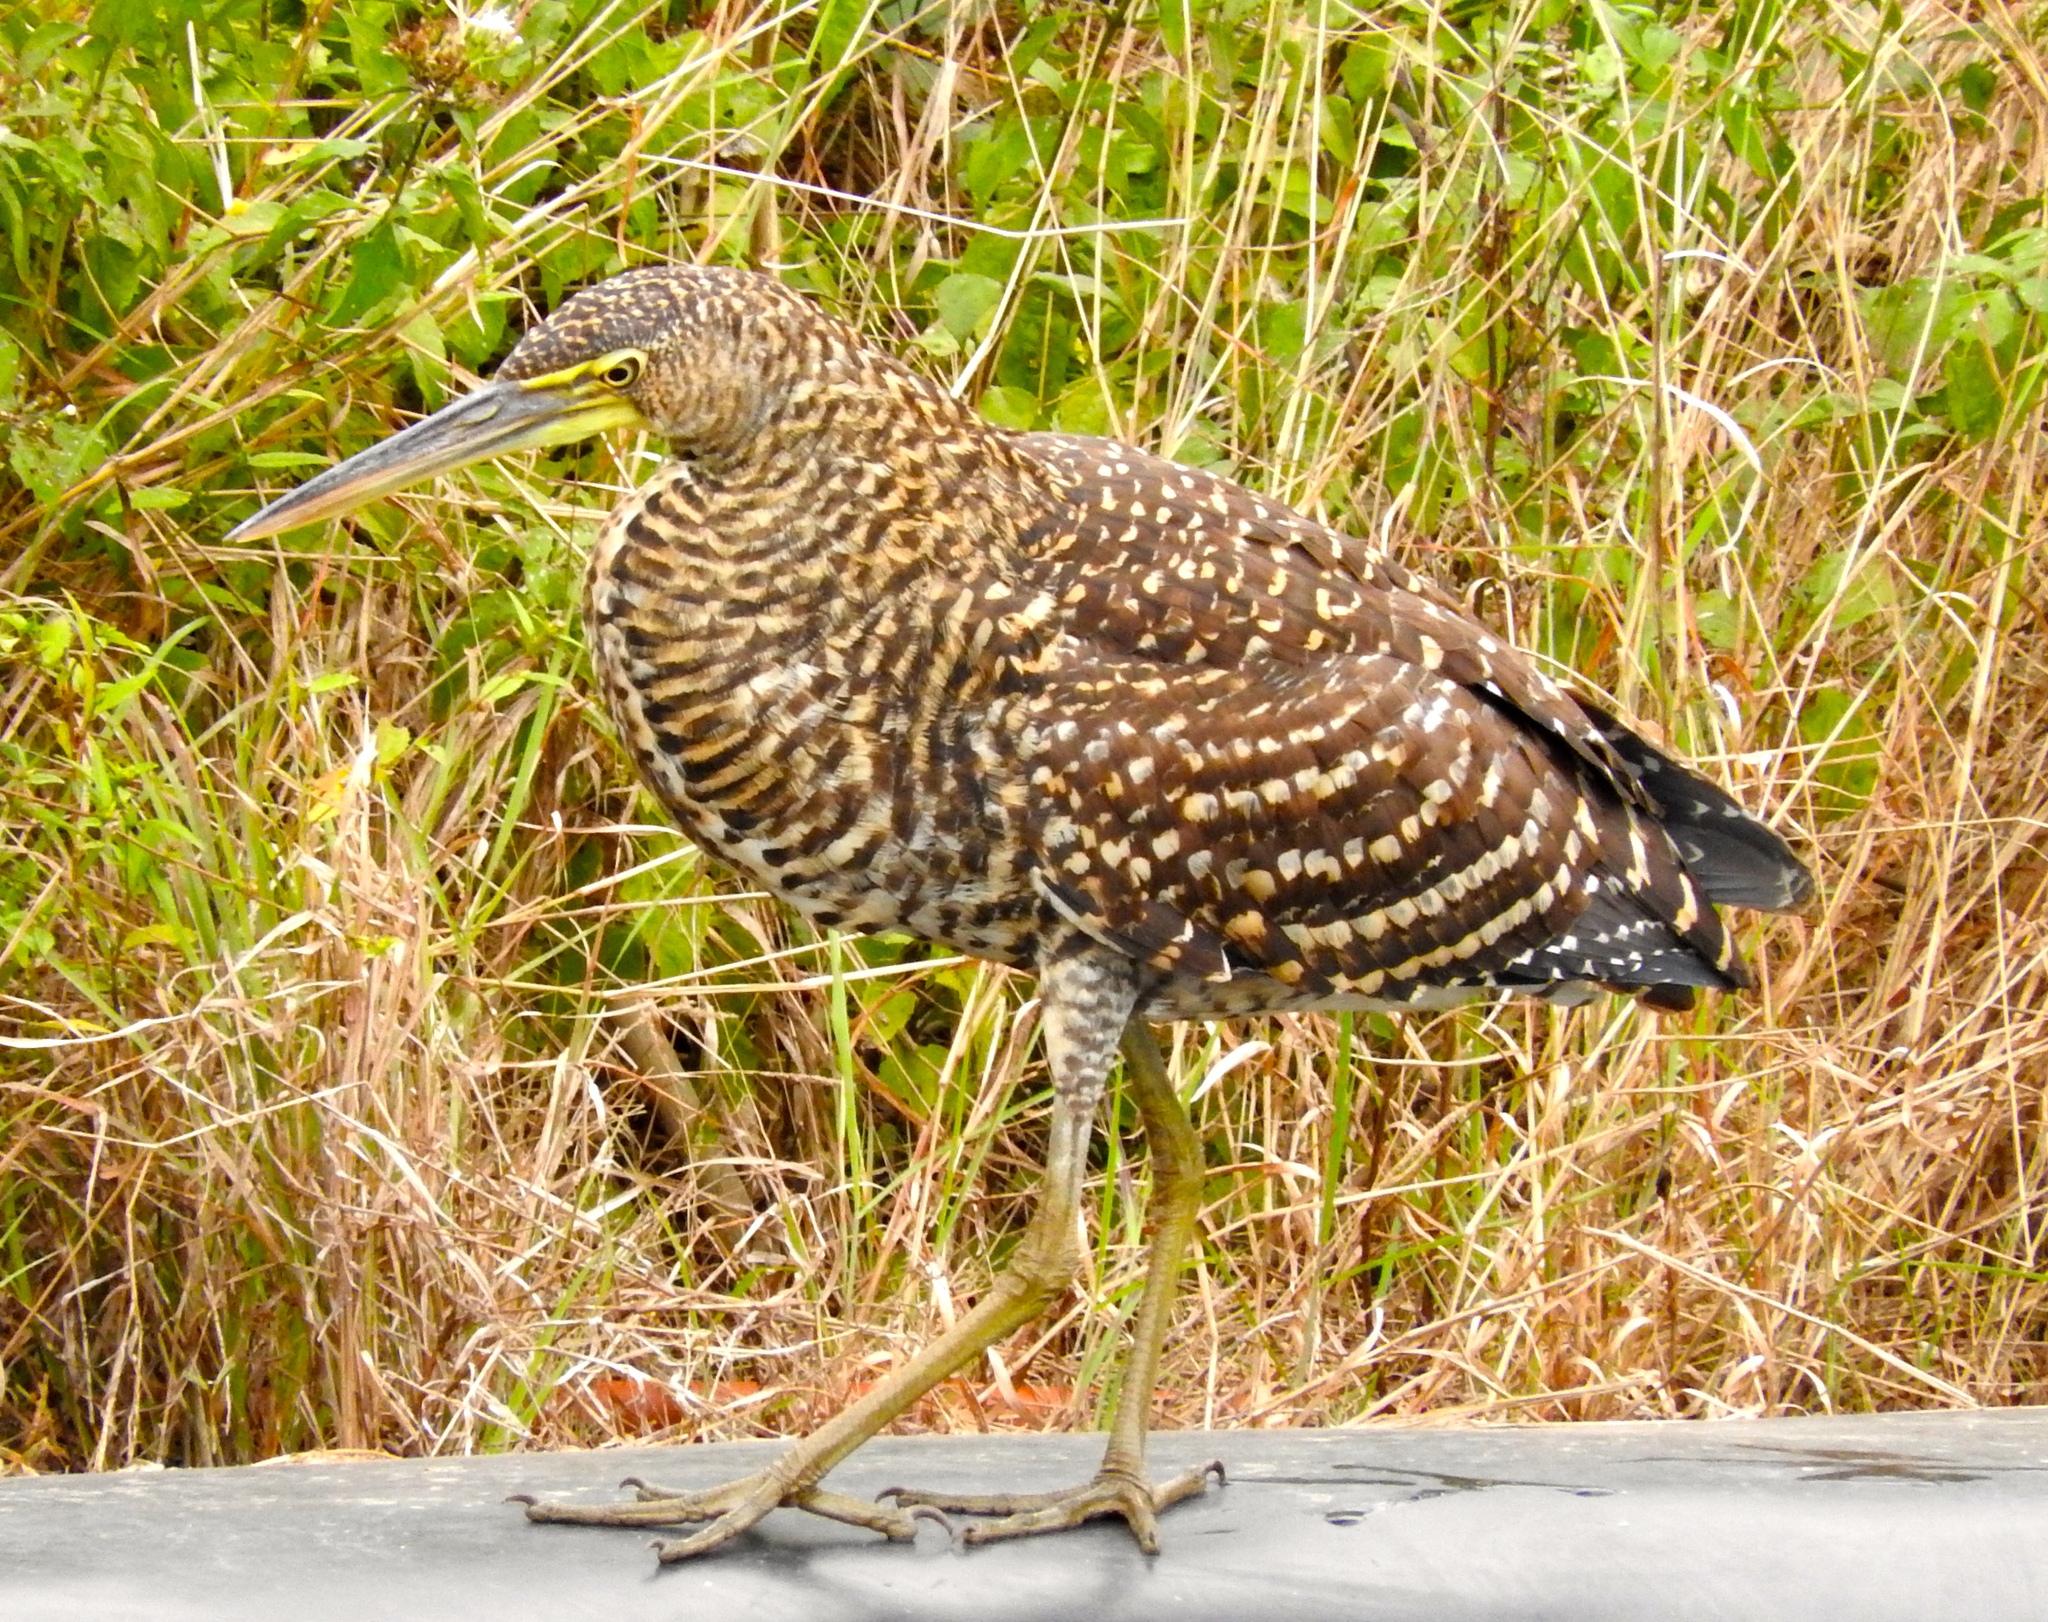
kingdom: Animalia
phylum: Chordata
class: Aves
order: Pelecaniformes
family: Ardeidae
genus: Tigrisoma
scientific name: Tigrisoma mexicanum
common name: Bare-throated tiger-heron
